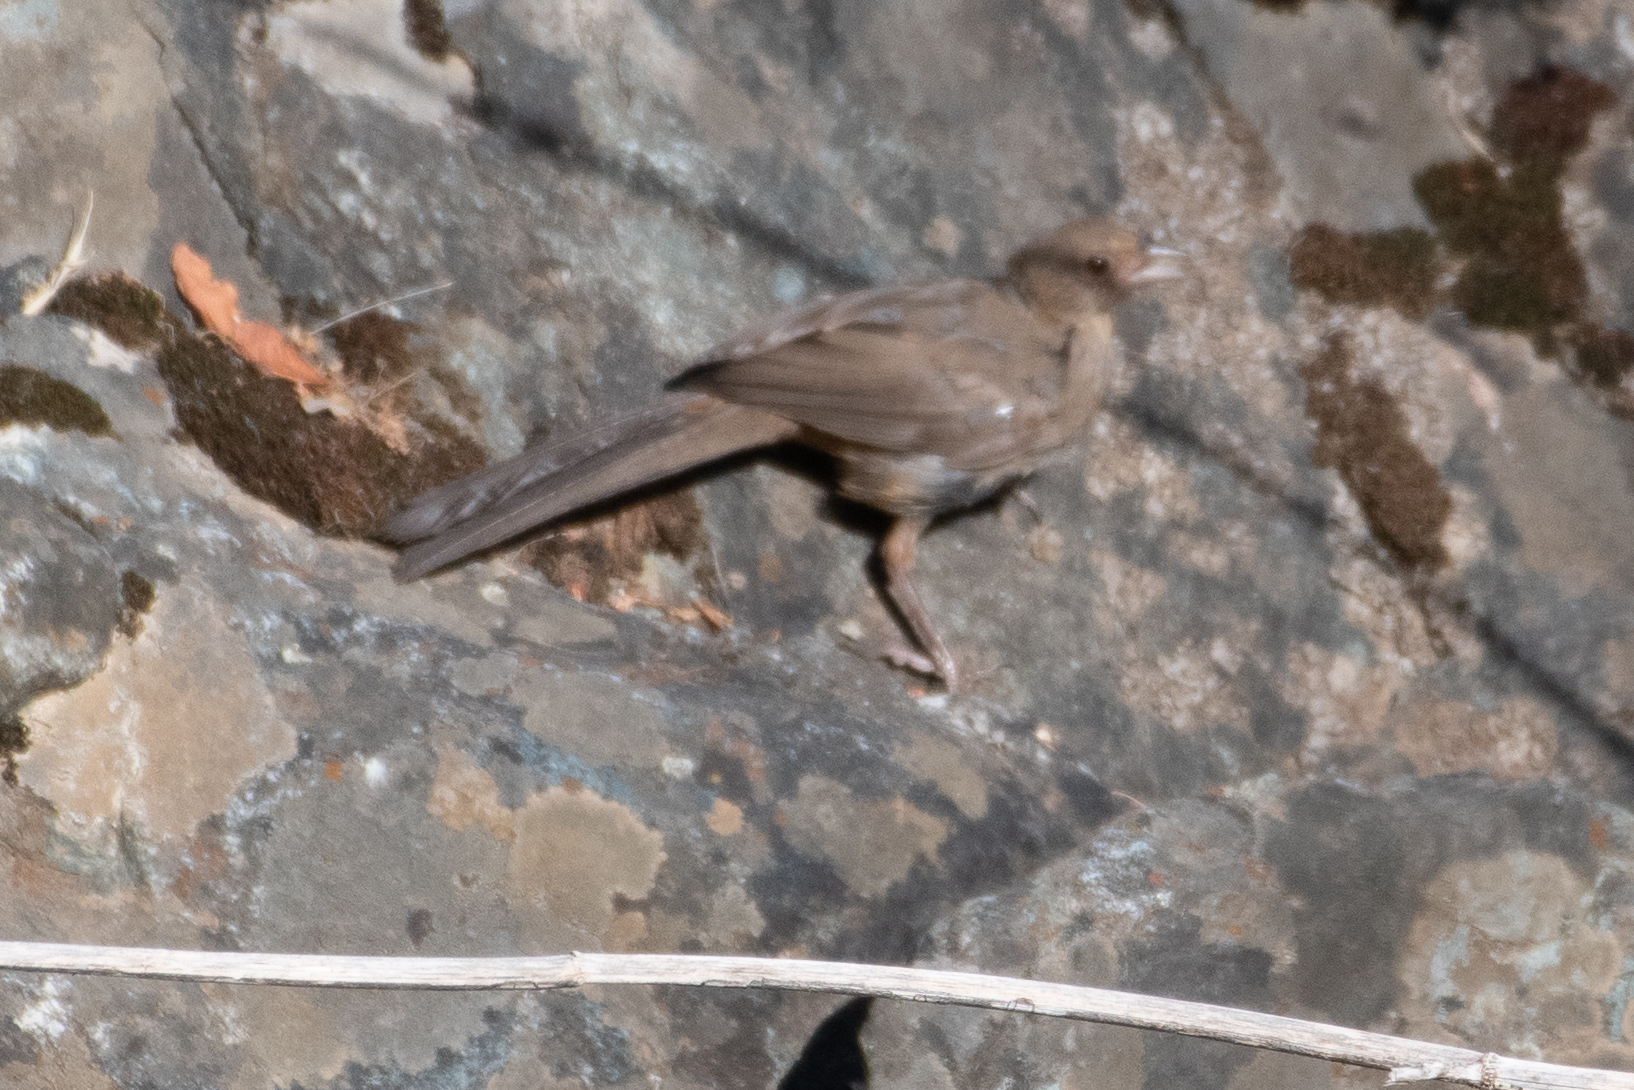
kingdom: Animalia
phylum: Chordata
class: Aves
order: Passeriformes
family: Passerellidae
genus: Melozone
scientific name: Melozone crissalis
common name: California towhee
